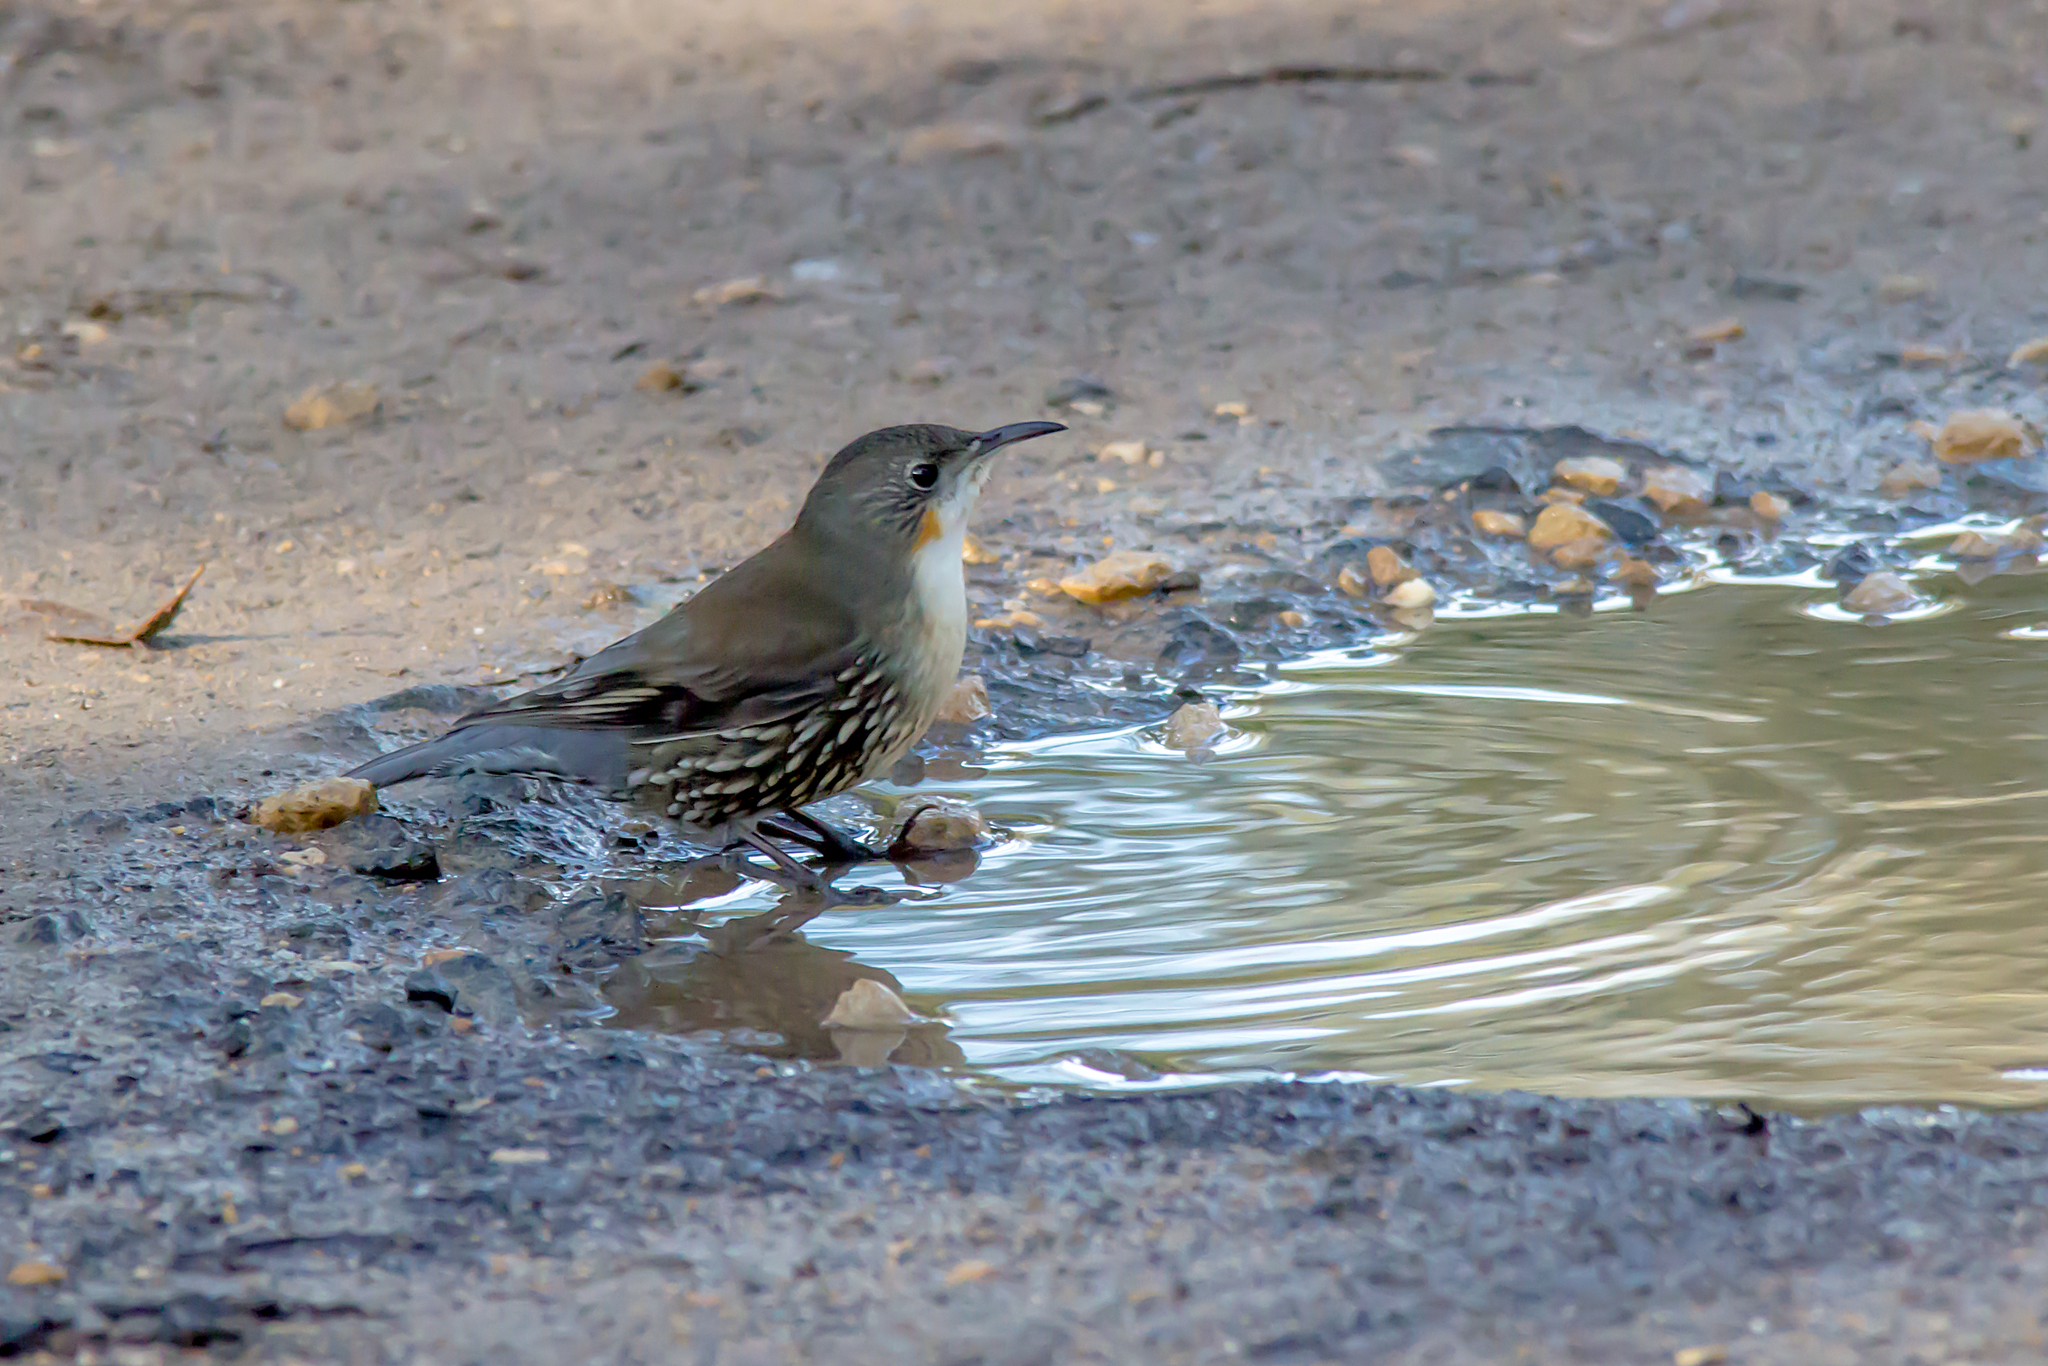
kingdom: Animalia
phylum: Chordata
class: Aves
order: Passeriformes
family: Climacteridae
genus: Cormobates
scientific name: Cormobates leucophaea
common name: White-throated treecreeper
